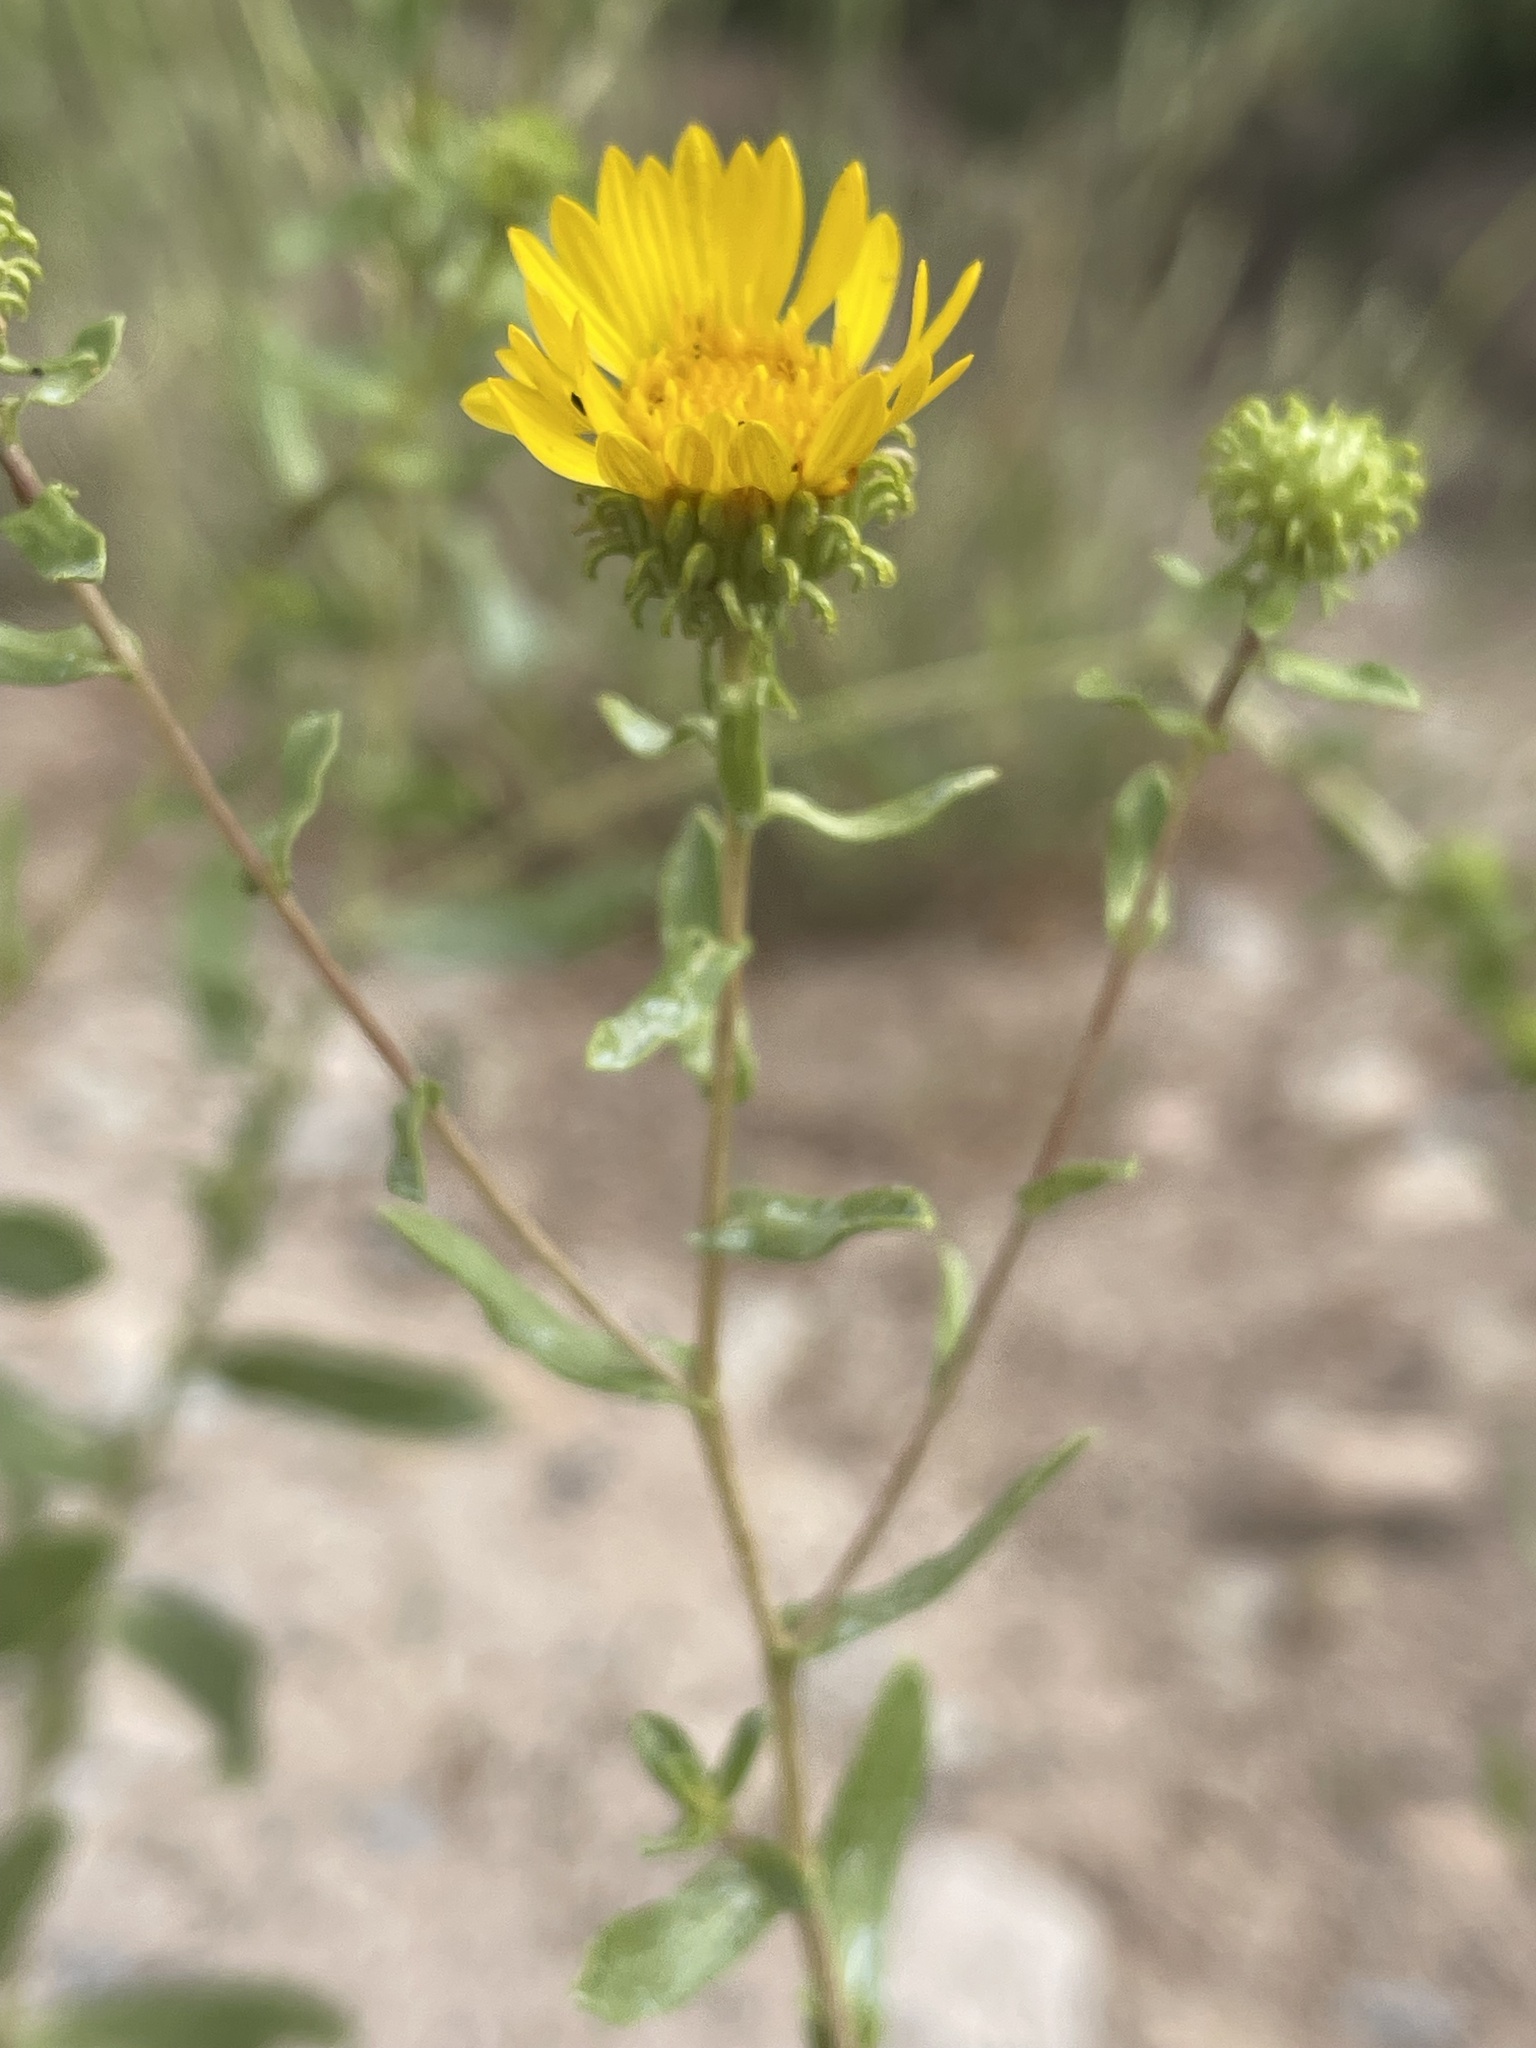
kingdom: Plantae
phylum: Tracheophyta
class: Magnoliopsida
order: Asterales
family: Asteraceae
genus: Grindelia
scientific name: Grindelia squarrosa
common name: Curly-cup gumweed
